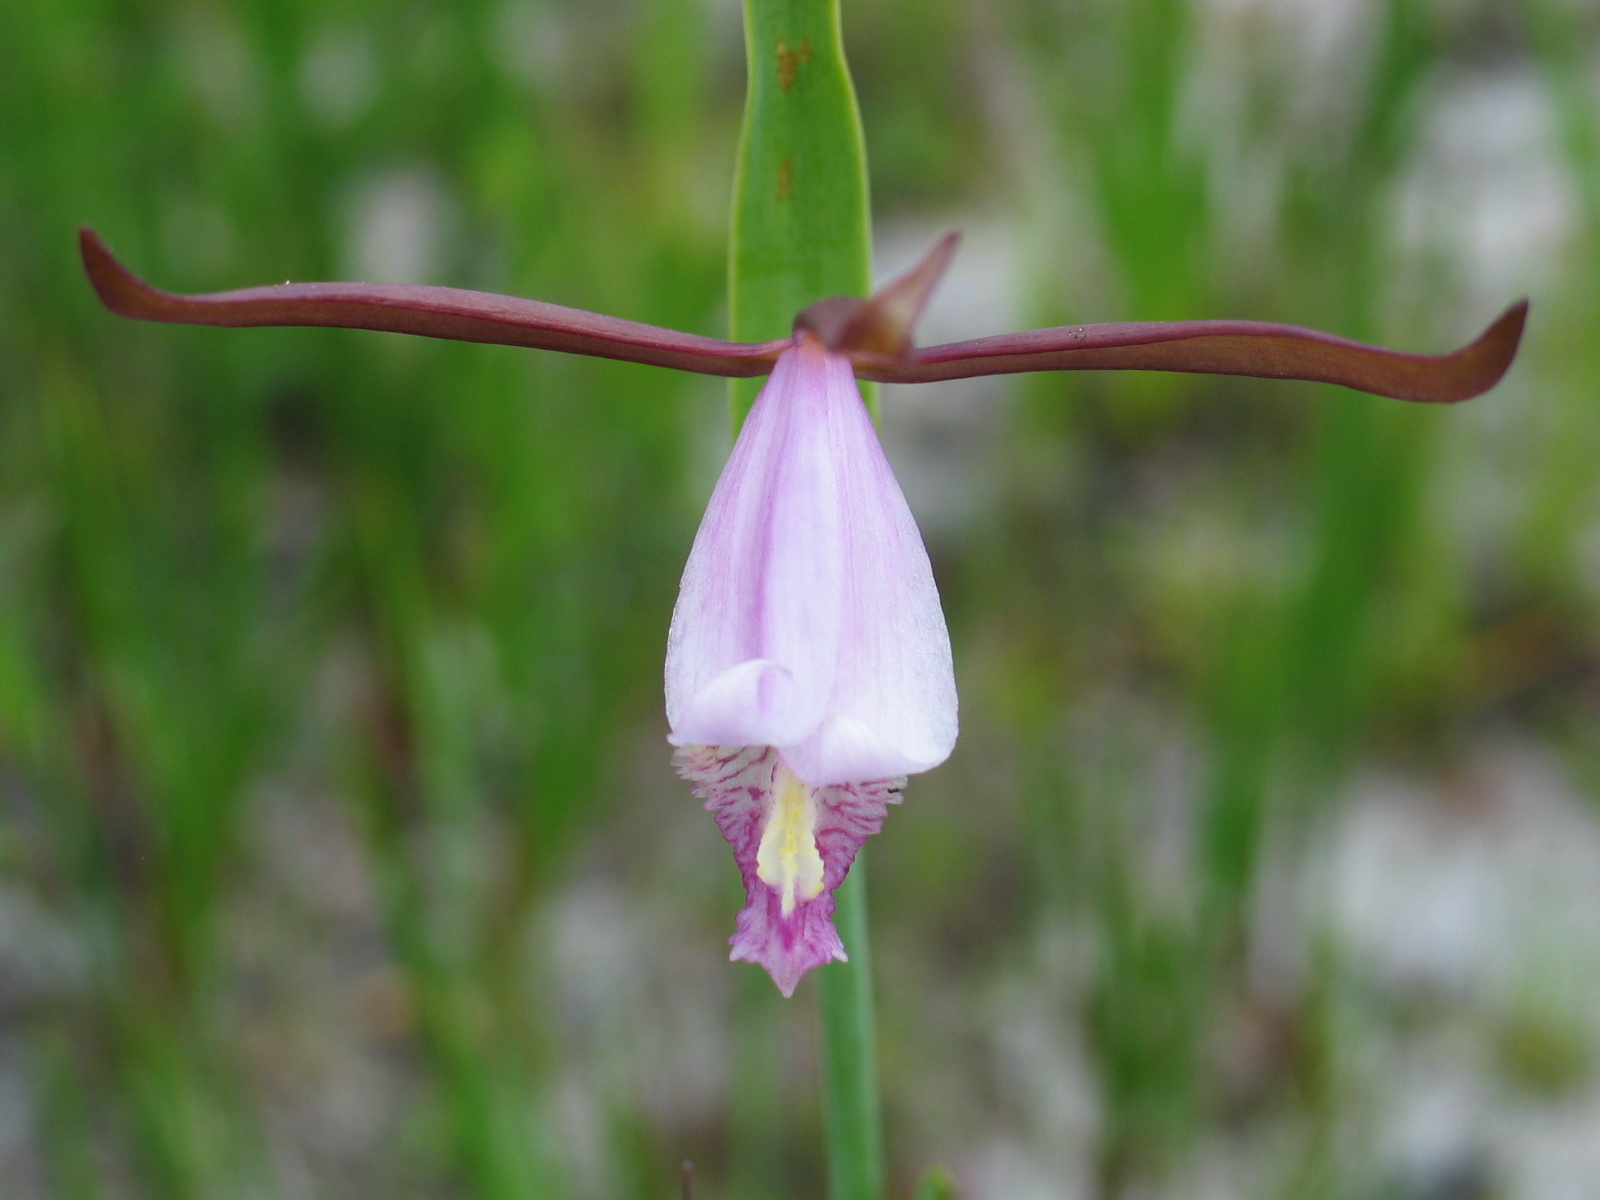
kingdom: Plantae
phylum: Tracheophyta
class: Liliopsida
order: Asparagales
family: Orchidaceae
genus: Cleistesiopsis
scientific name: Cleistesiopsis oricamporum
